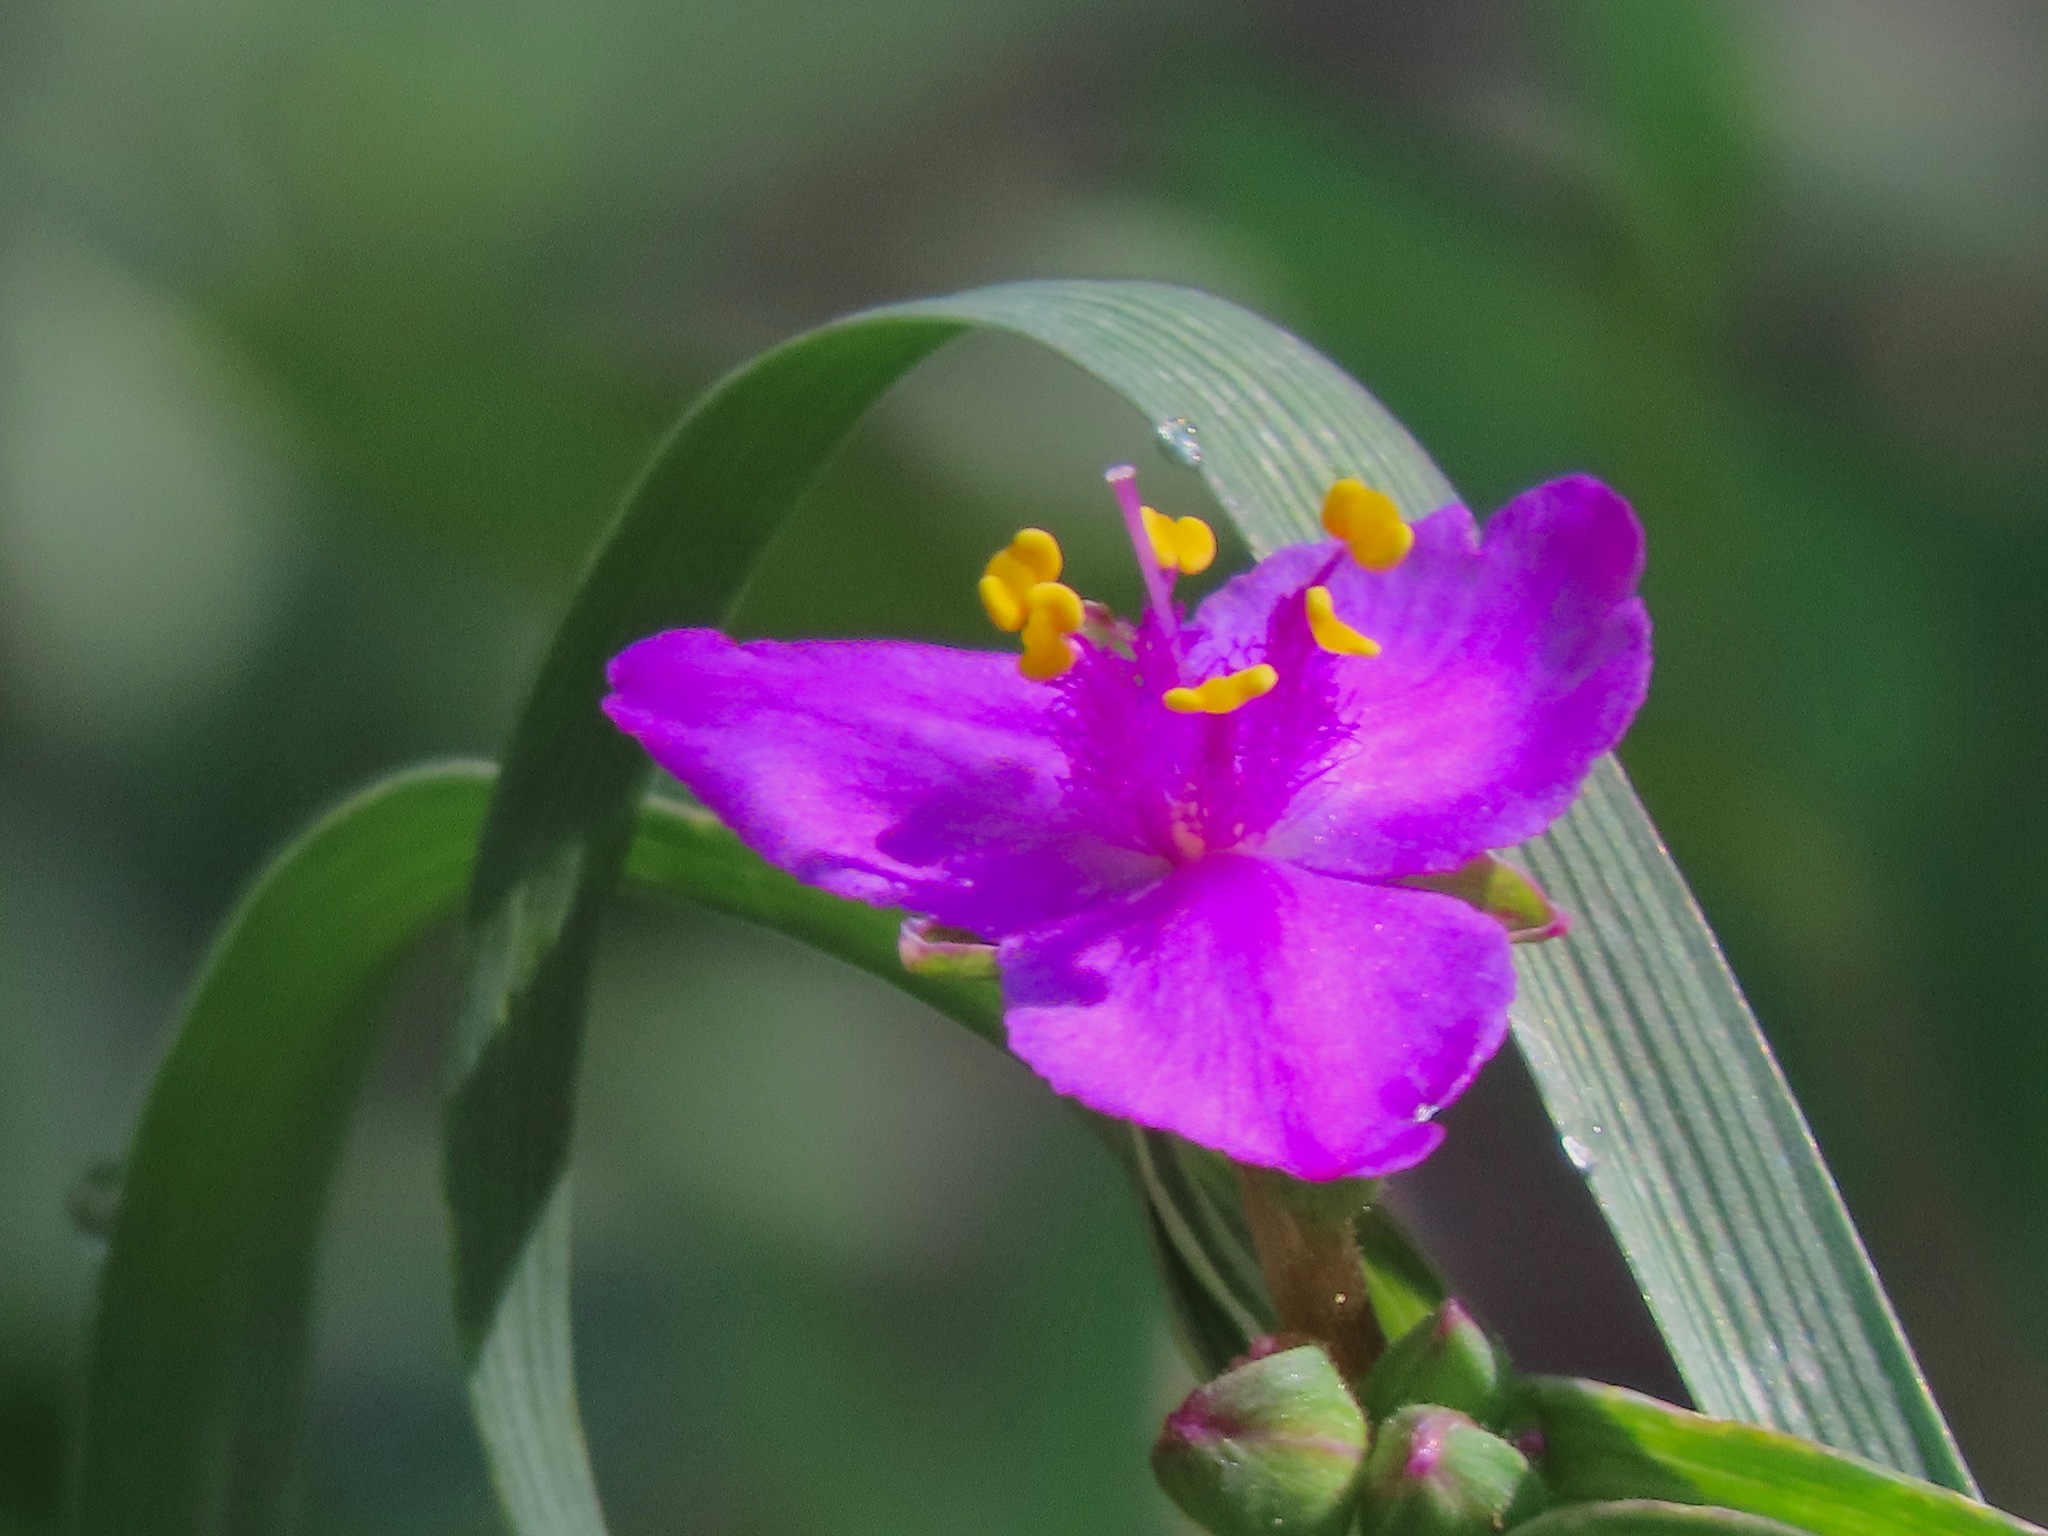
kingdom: Plantae
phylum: Tracheophyta
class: Liliopsida
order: Commelinales
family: Commelinaceae
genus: Tradescantia
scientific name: Tradescantia occidentalis
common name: Prairie spiderwort
